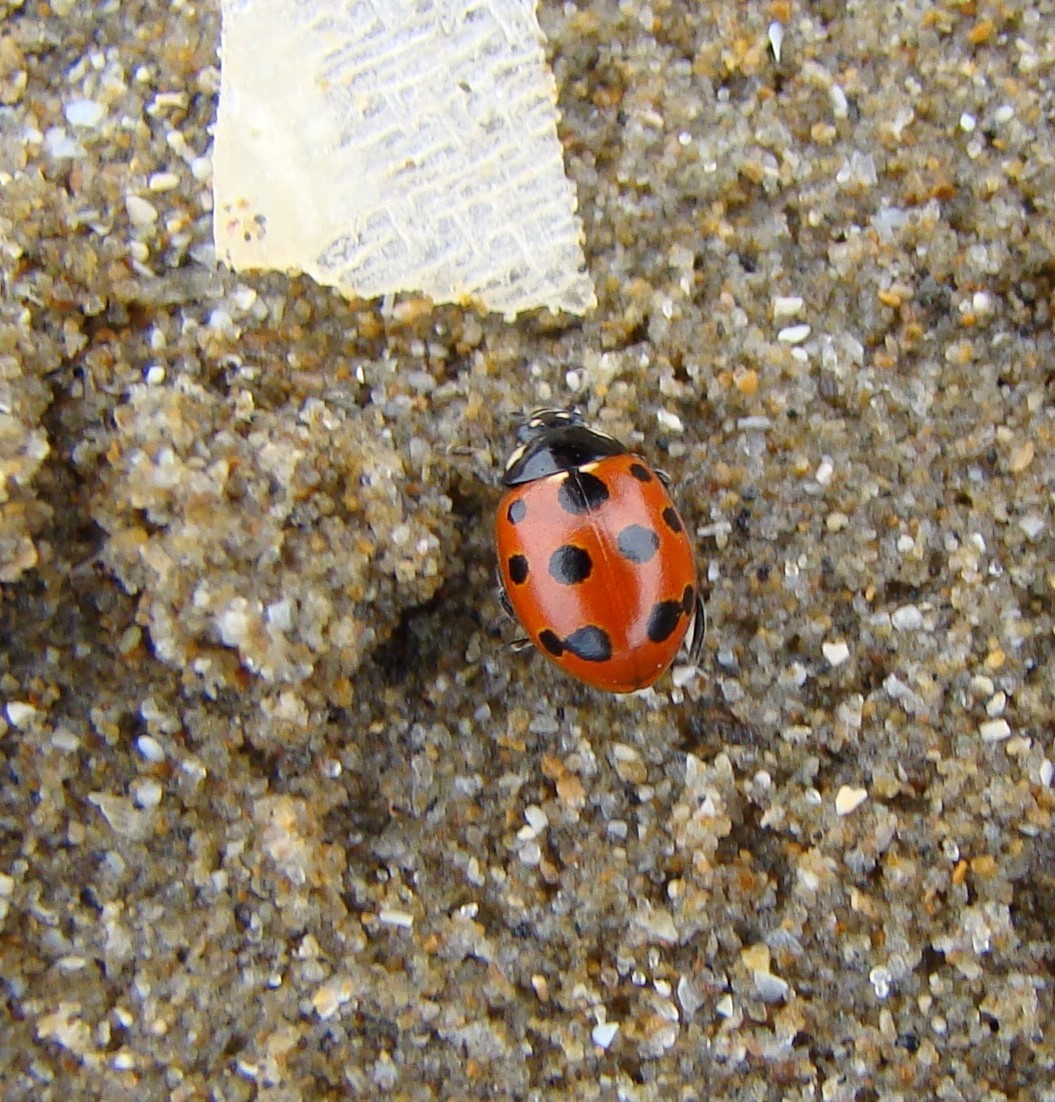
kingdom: Animalia
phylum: Arthropoda
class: Insecta
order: Coleoptera
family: Coccinellidae
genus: Coccinella
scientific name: Coccinella undecimpunctata
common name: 11-spot ladybird
